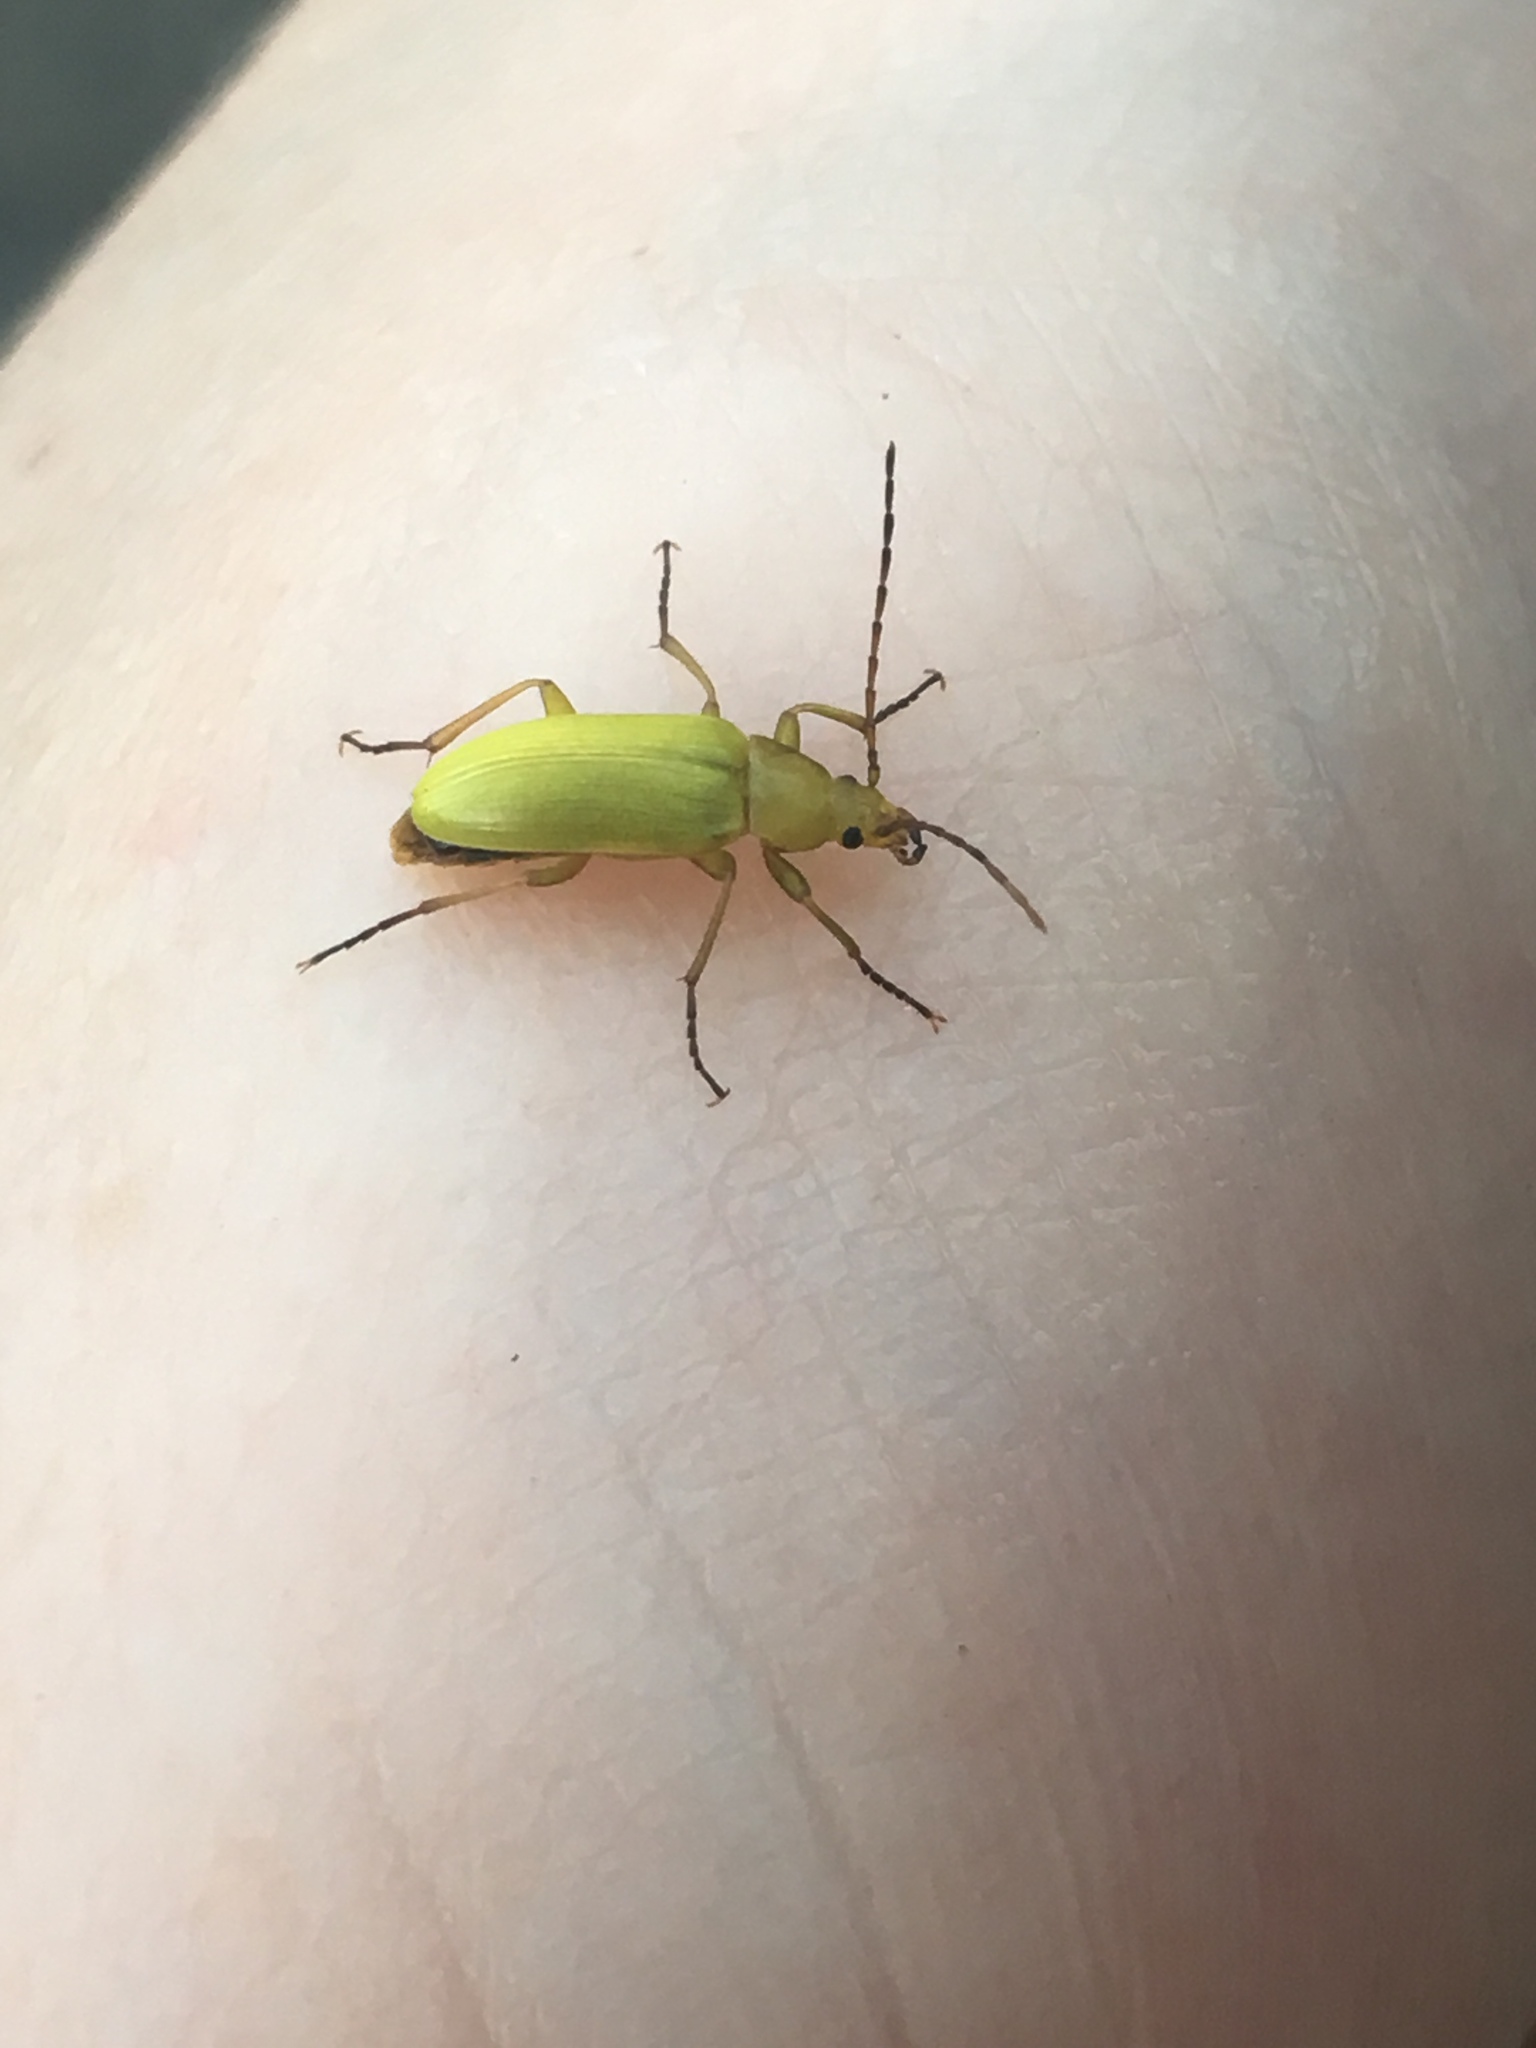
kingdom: Animalia
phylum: Arthropoda
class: Insecta
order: Coleoptera
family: Tenebrionidae
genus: Cteniopus
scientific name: Cteniopus sulphureus
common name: Sulphur beetle
